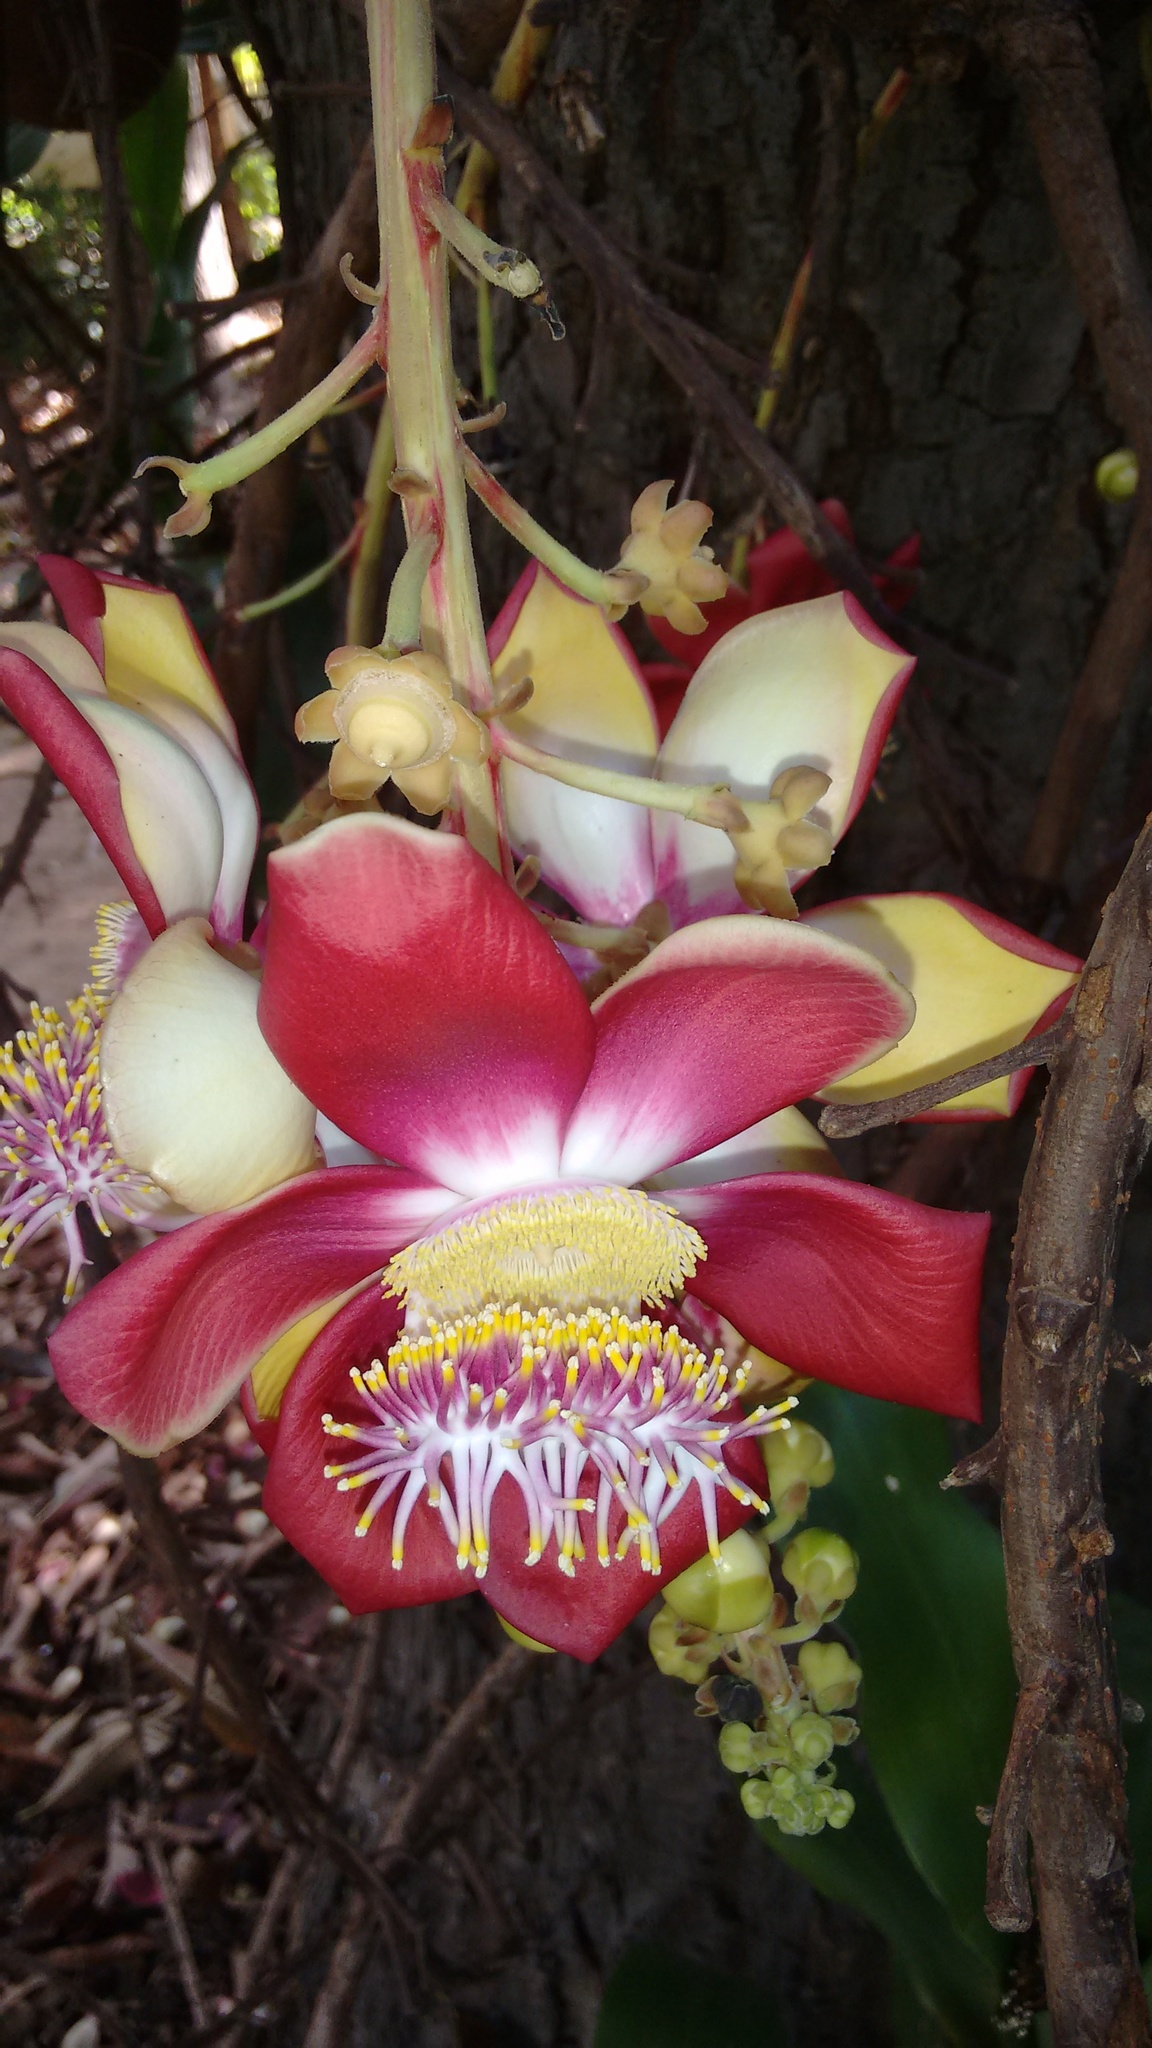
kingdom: Plantae
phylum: Tracheophyta
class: Magnoliopsida
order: Ericales
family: Lecythidaceae
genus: Couroupita
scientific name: Couroupita guianensis
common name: Cannonball tree
